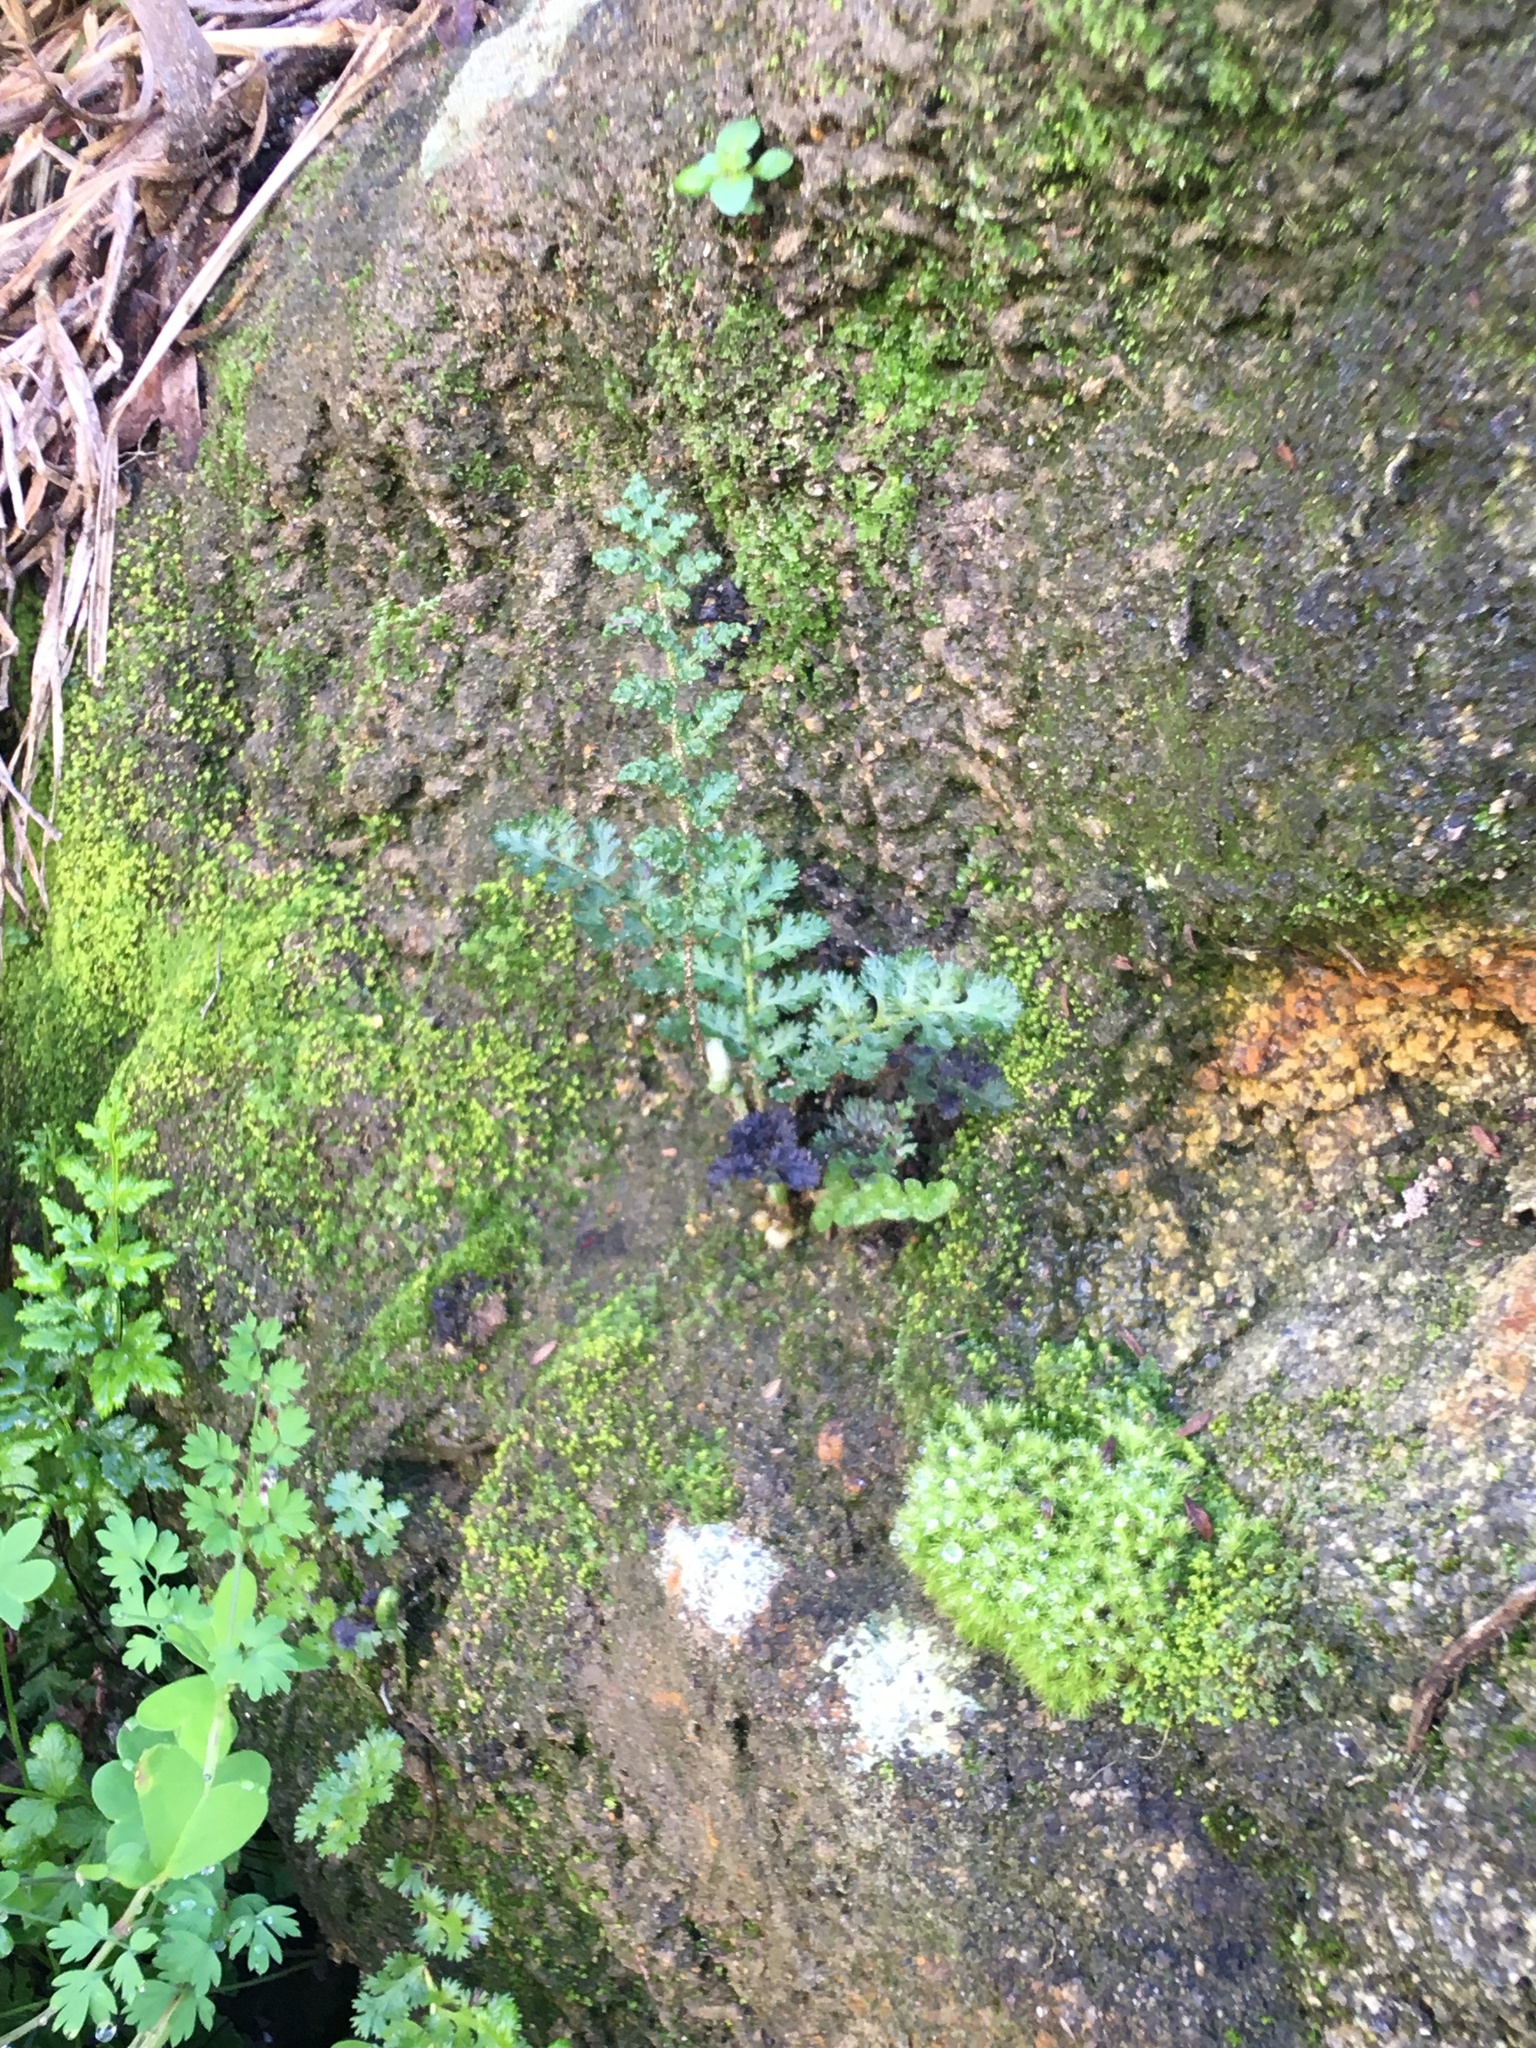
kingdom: Plantae
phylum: Tracheophyta
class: Polypodiopsida
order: Schizaeales
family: Anemiaceae
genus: Anemia
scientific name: Anemia caffrorum
